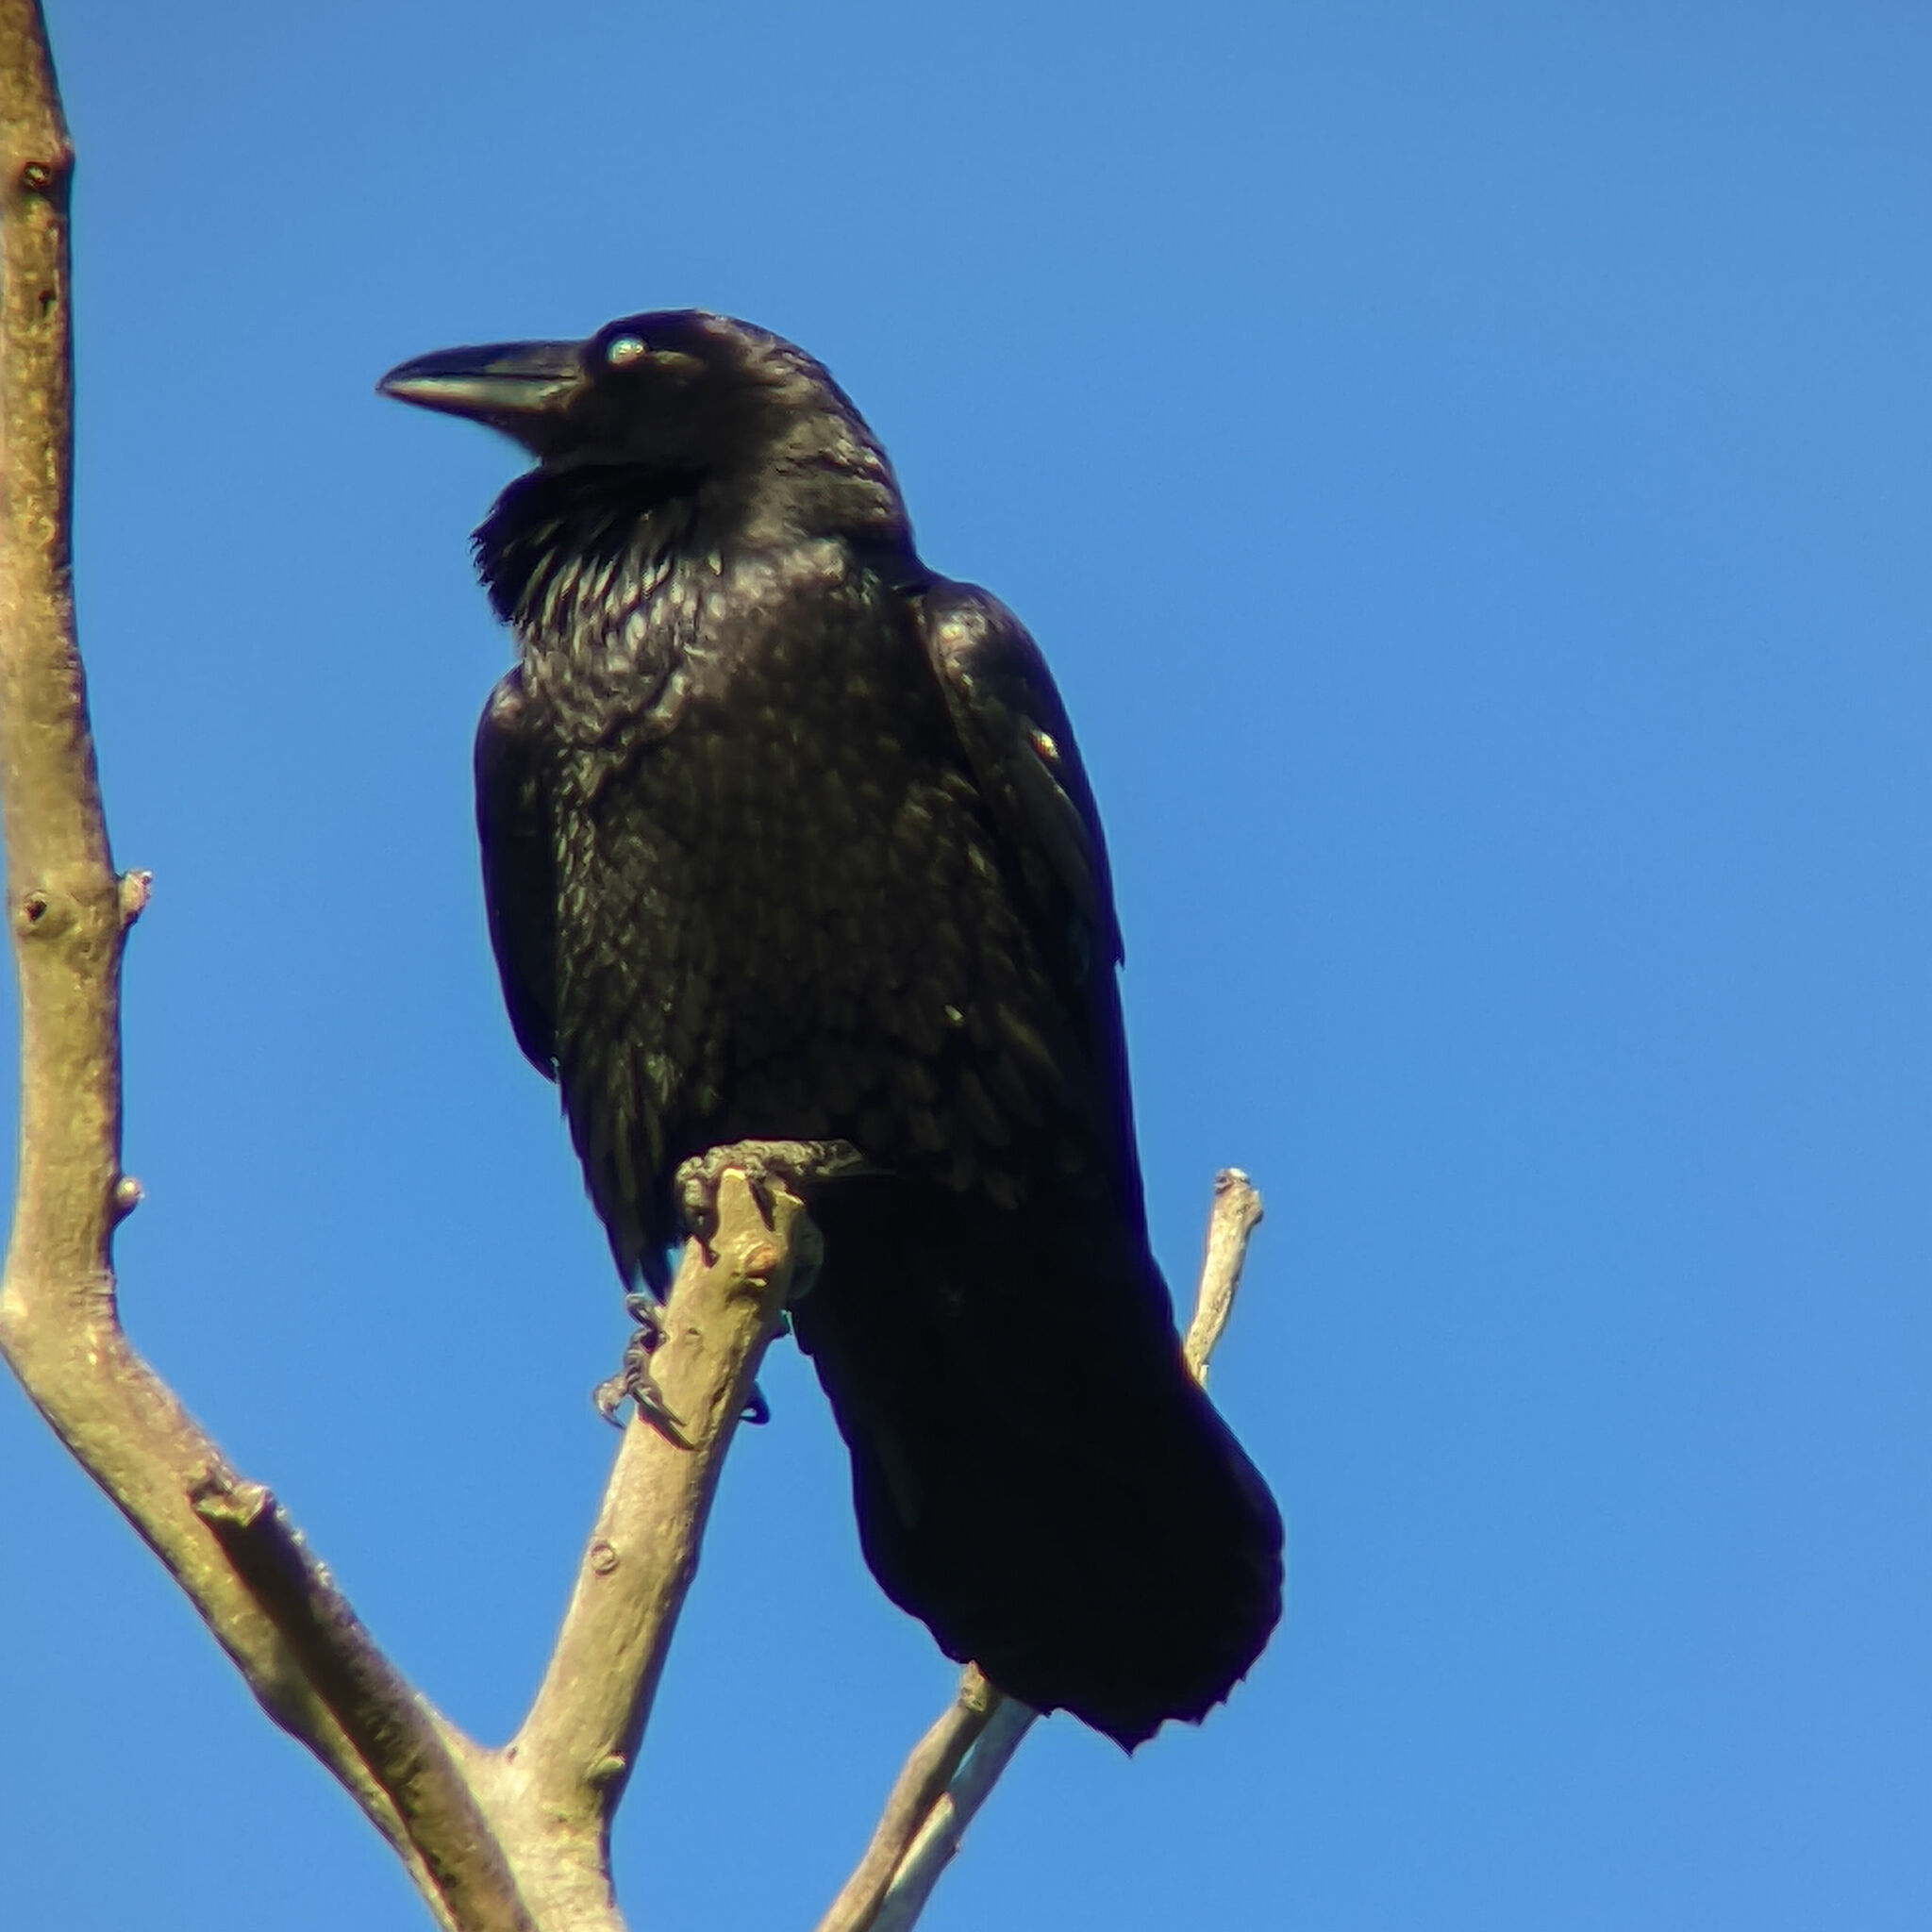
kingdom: Animalia
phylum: Chordata
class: Aves
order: Passeriformes
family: Corvidae
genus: Corvus
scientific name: Corvus corax
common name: Common raven
